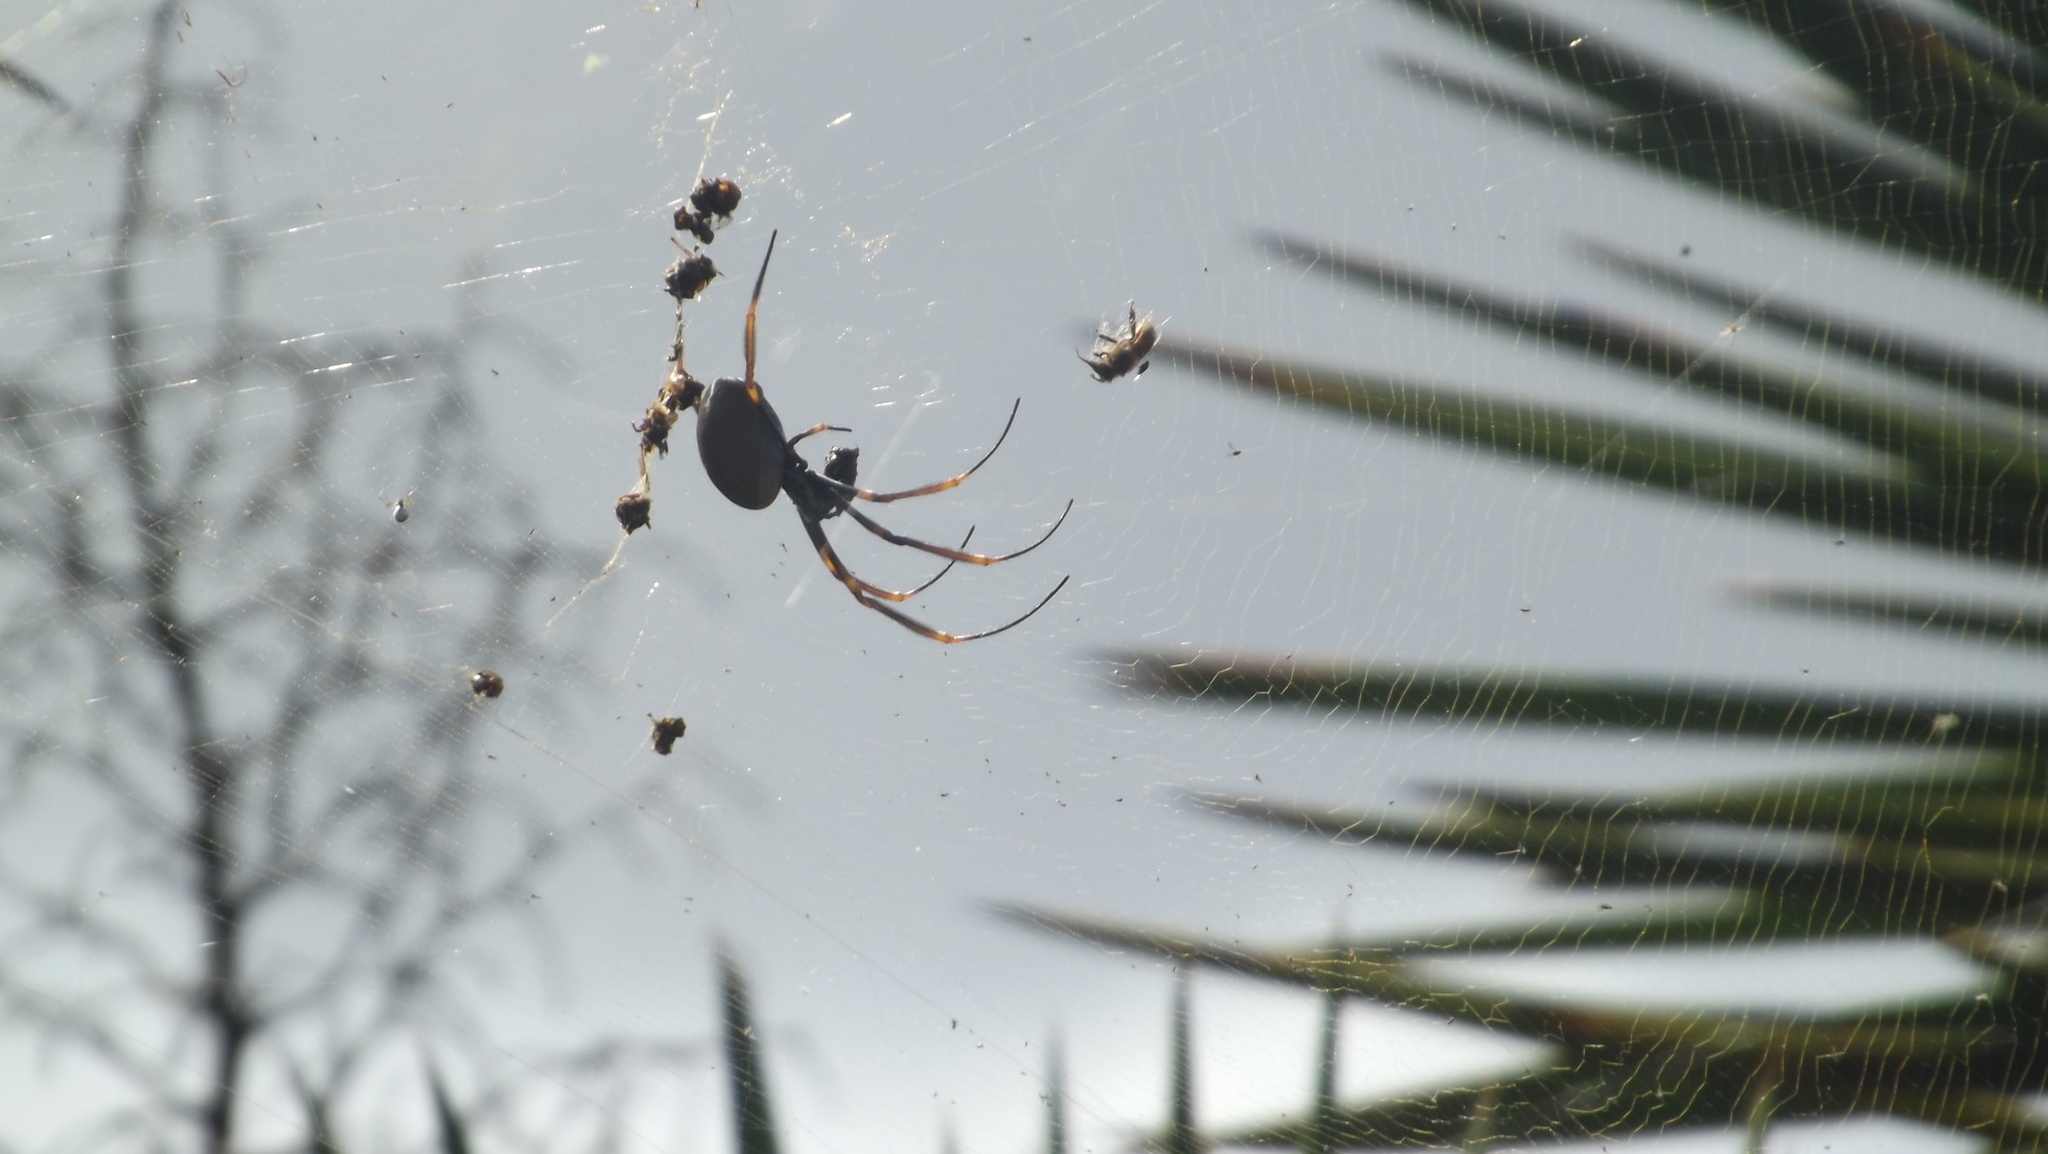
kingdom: Animalia
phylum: Arthropoda
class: Arachnida
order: Araneae
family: Araneidae
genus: Trichonephila
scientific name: Trichonephila plumipes
